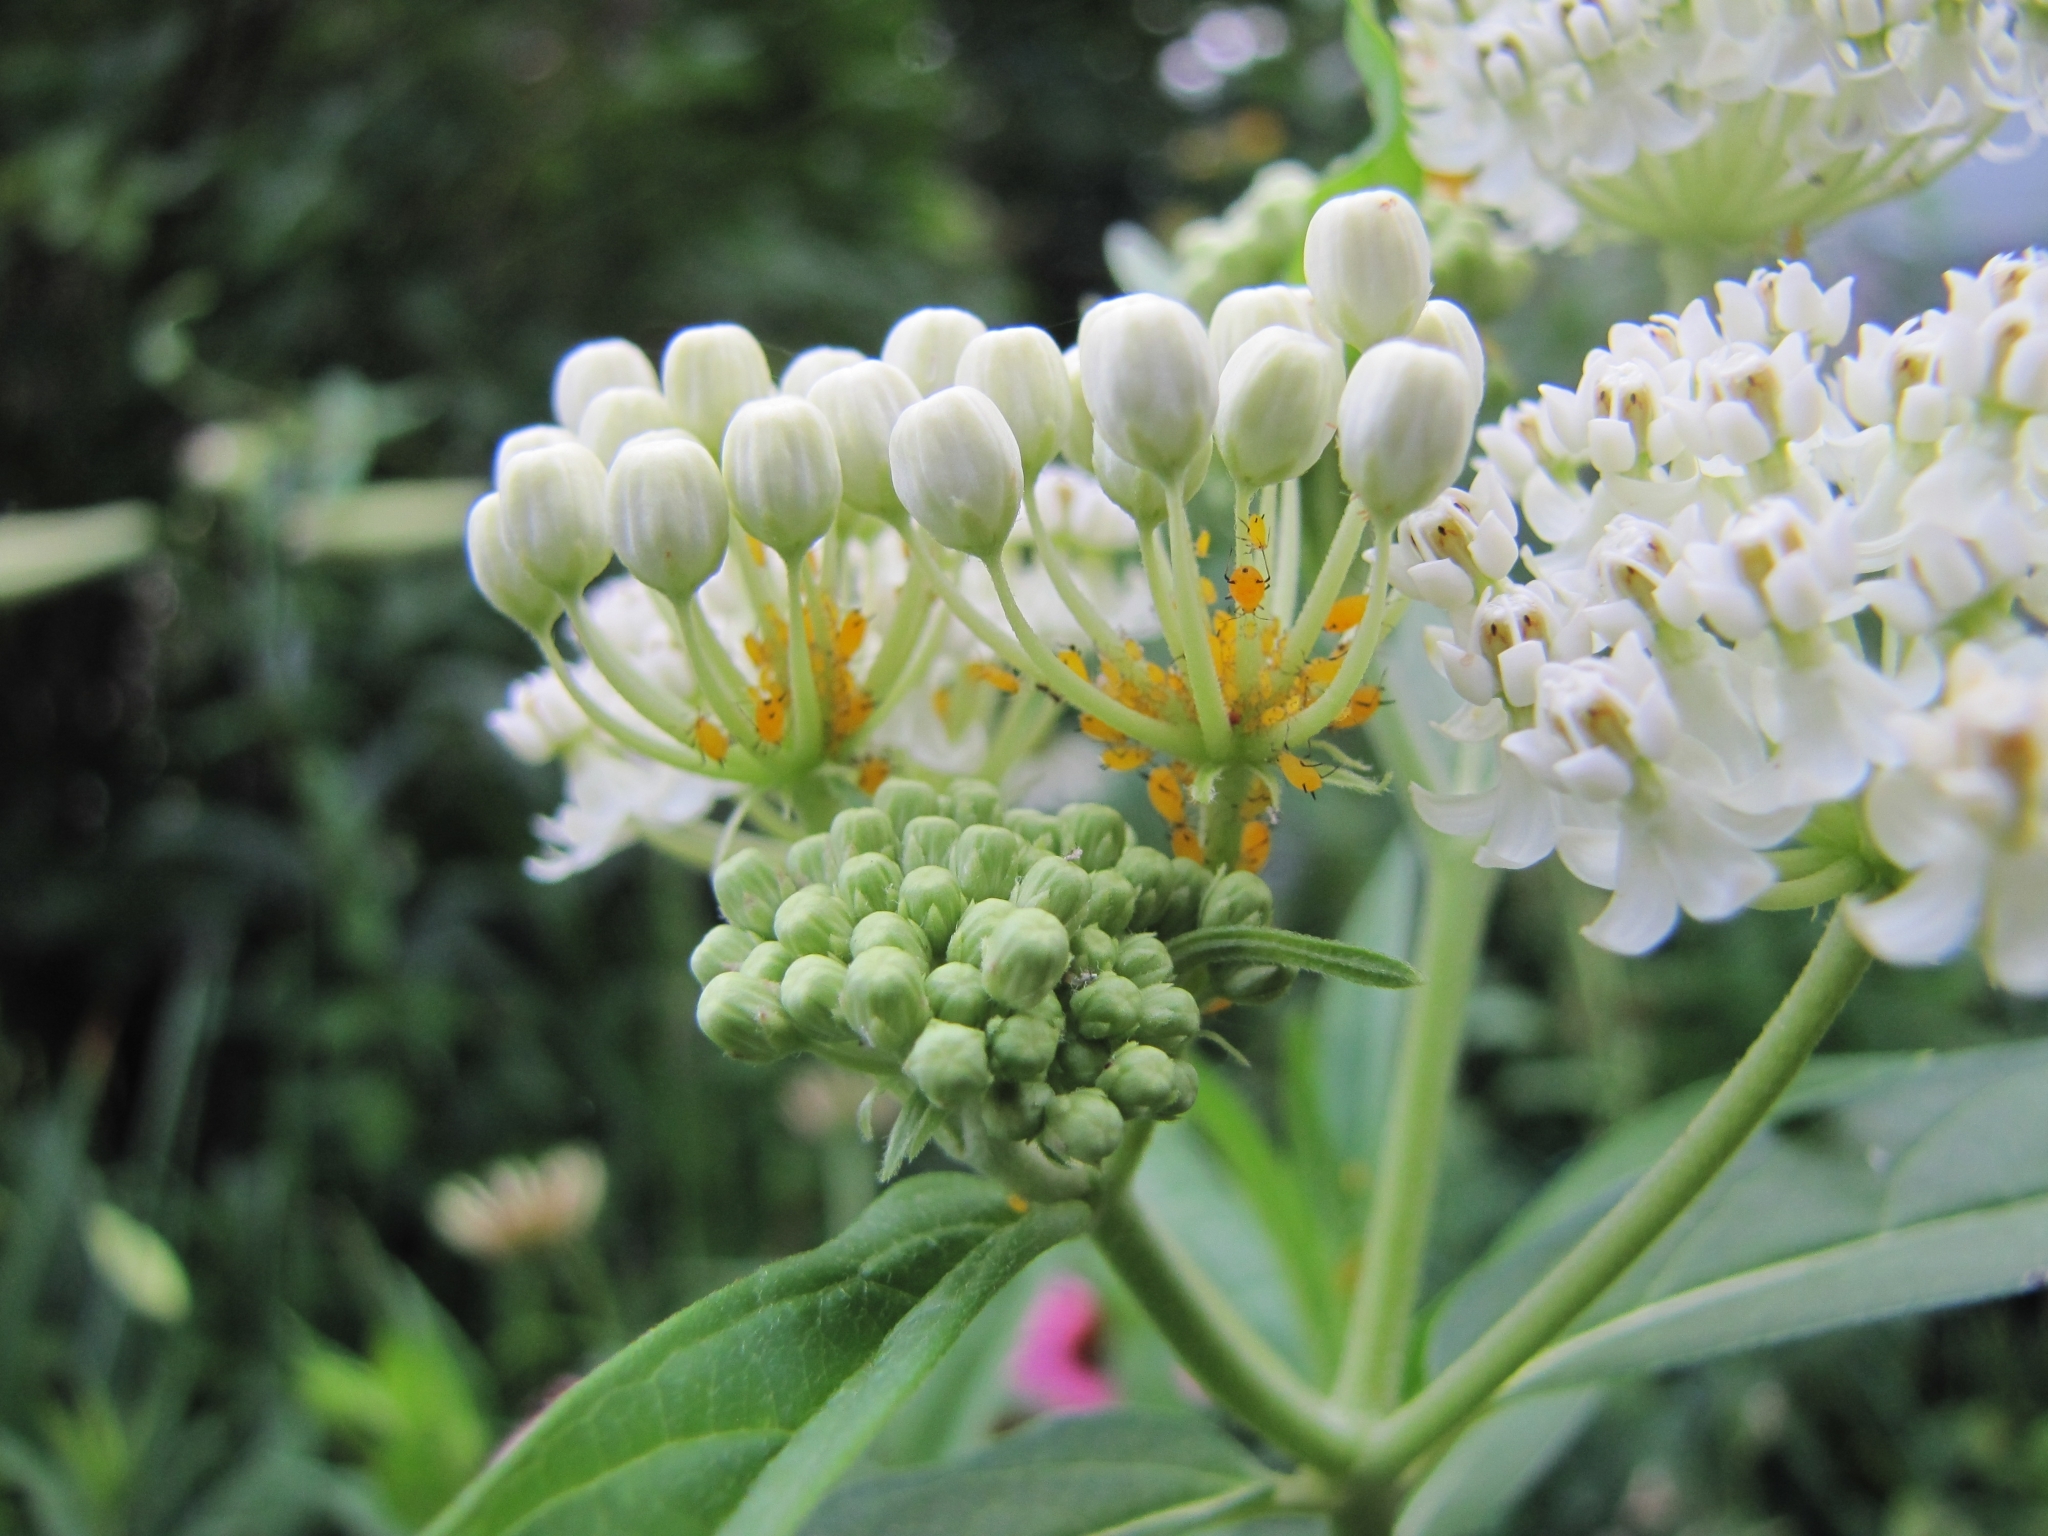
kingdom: Animalia
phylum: Arthropoda
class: Insecta
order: Hemiptera
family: Aphididae
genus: Aphis
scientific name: Aphis nerii
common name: Oleander aphid
